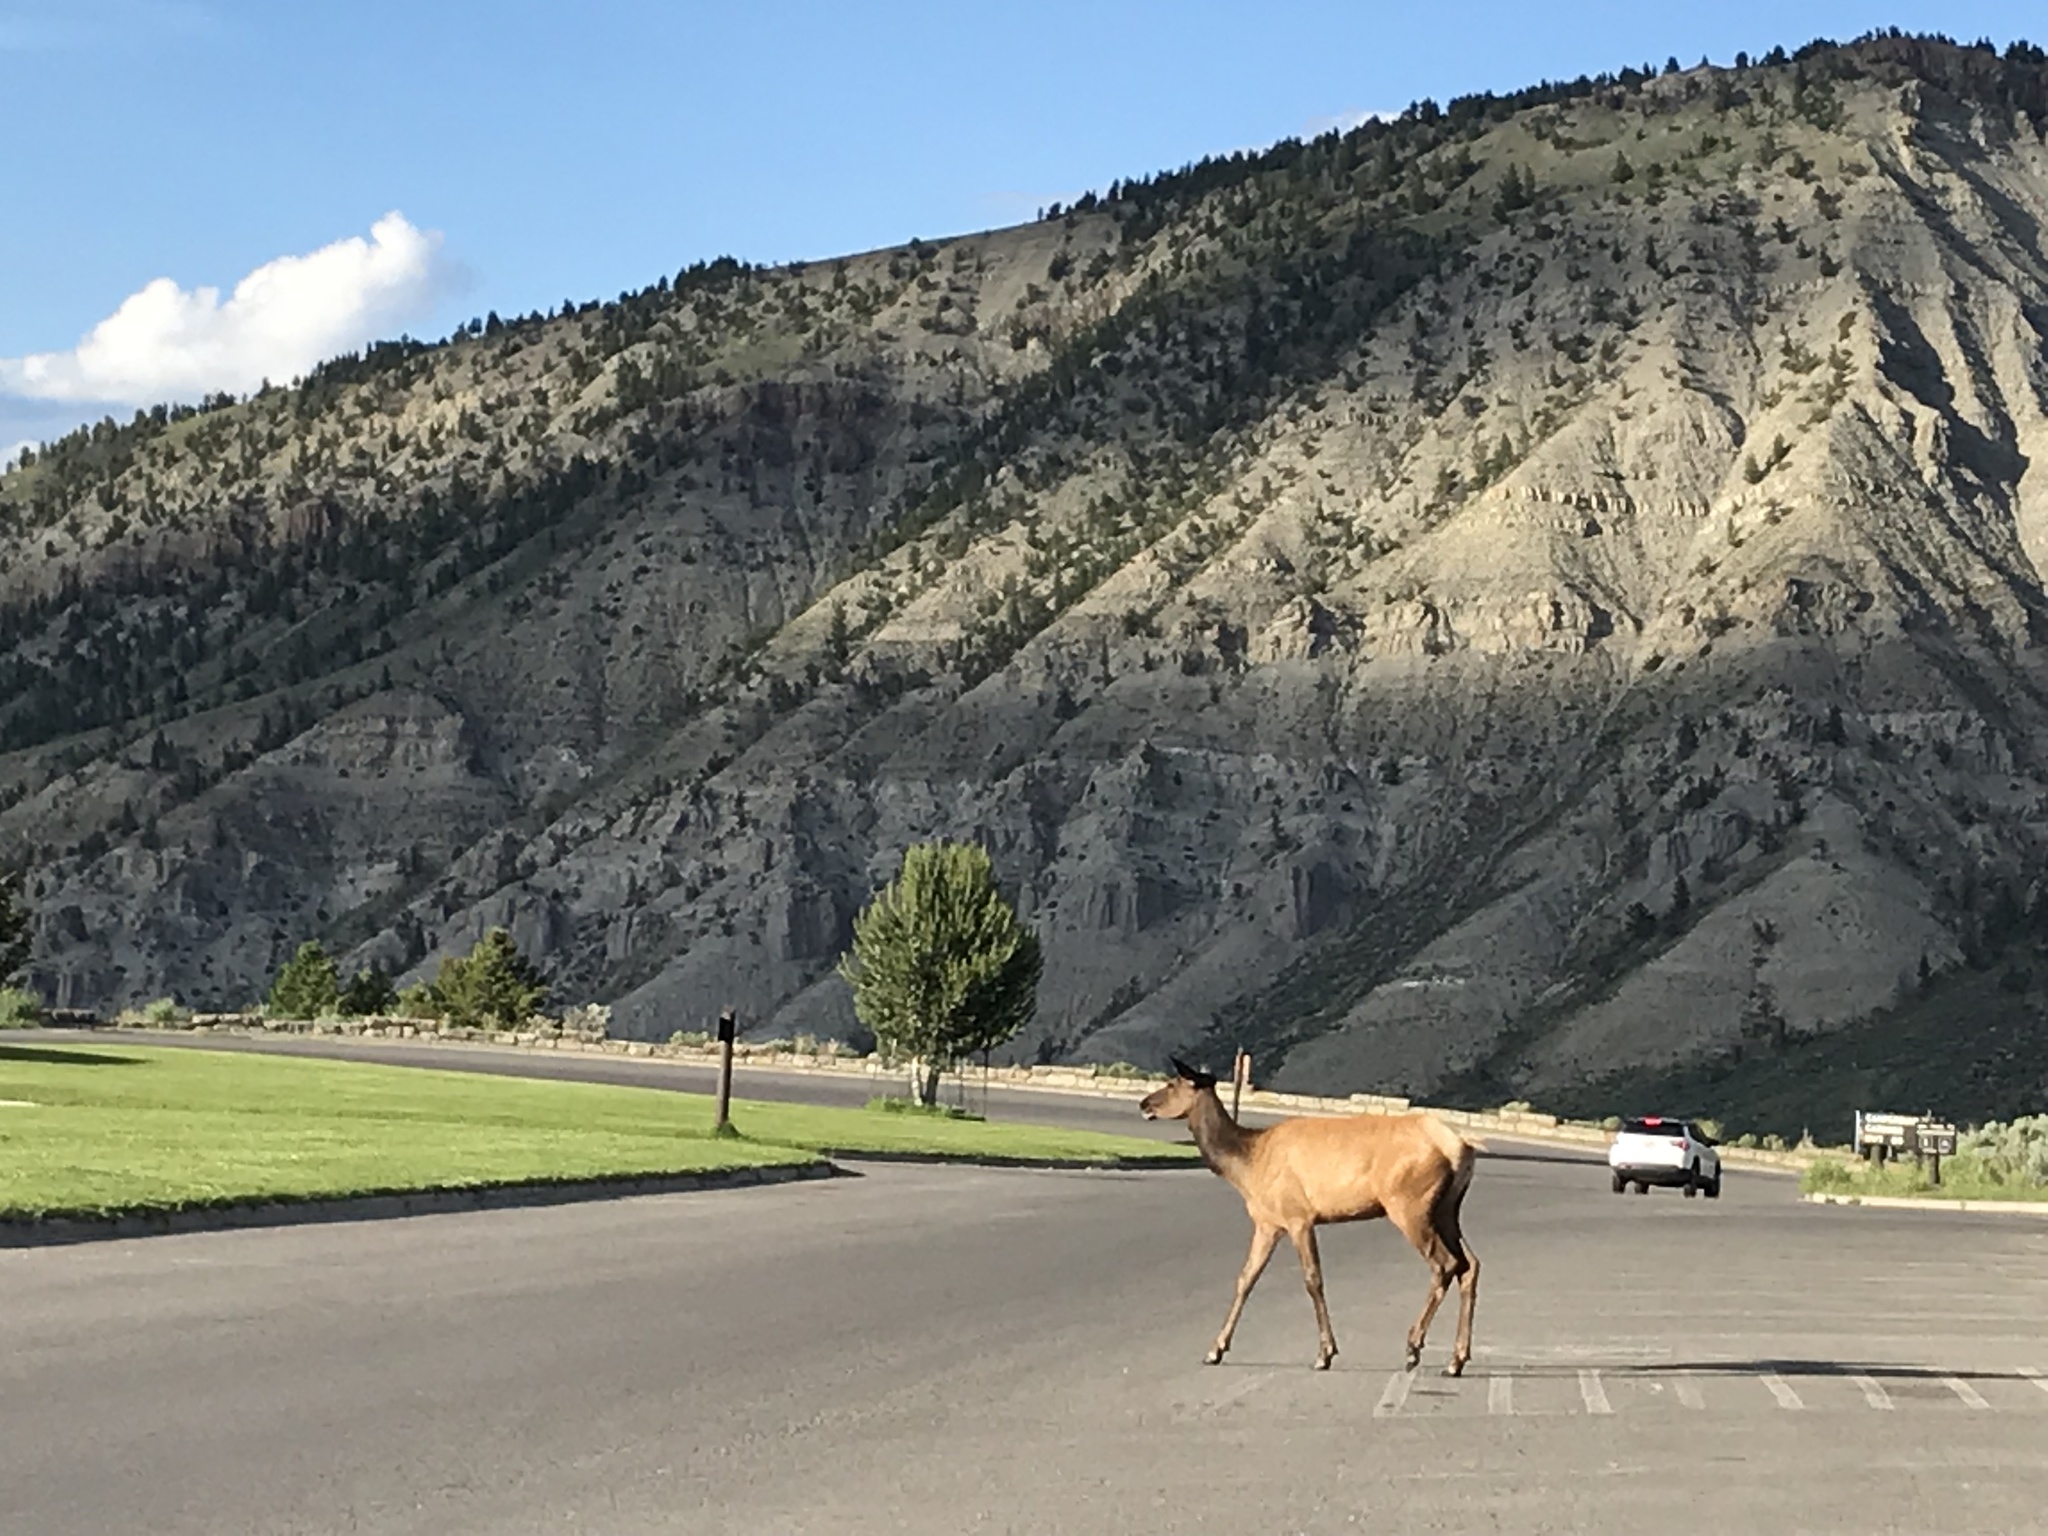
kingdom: Animalia
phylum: Chordata
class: Mammalia
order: Artiodactyla
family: Cervidae
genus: Cervus
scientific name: Cervus elaphus
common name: Red deer
